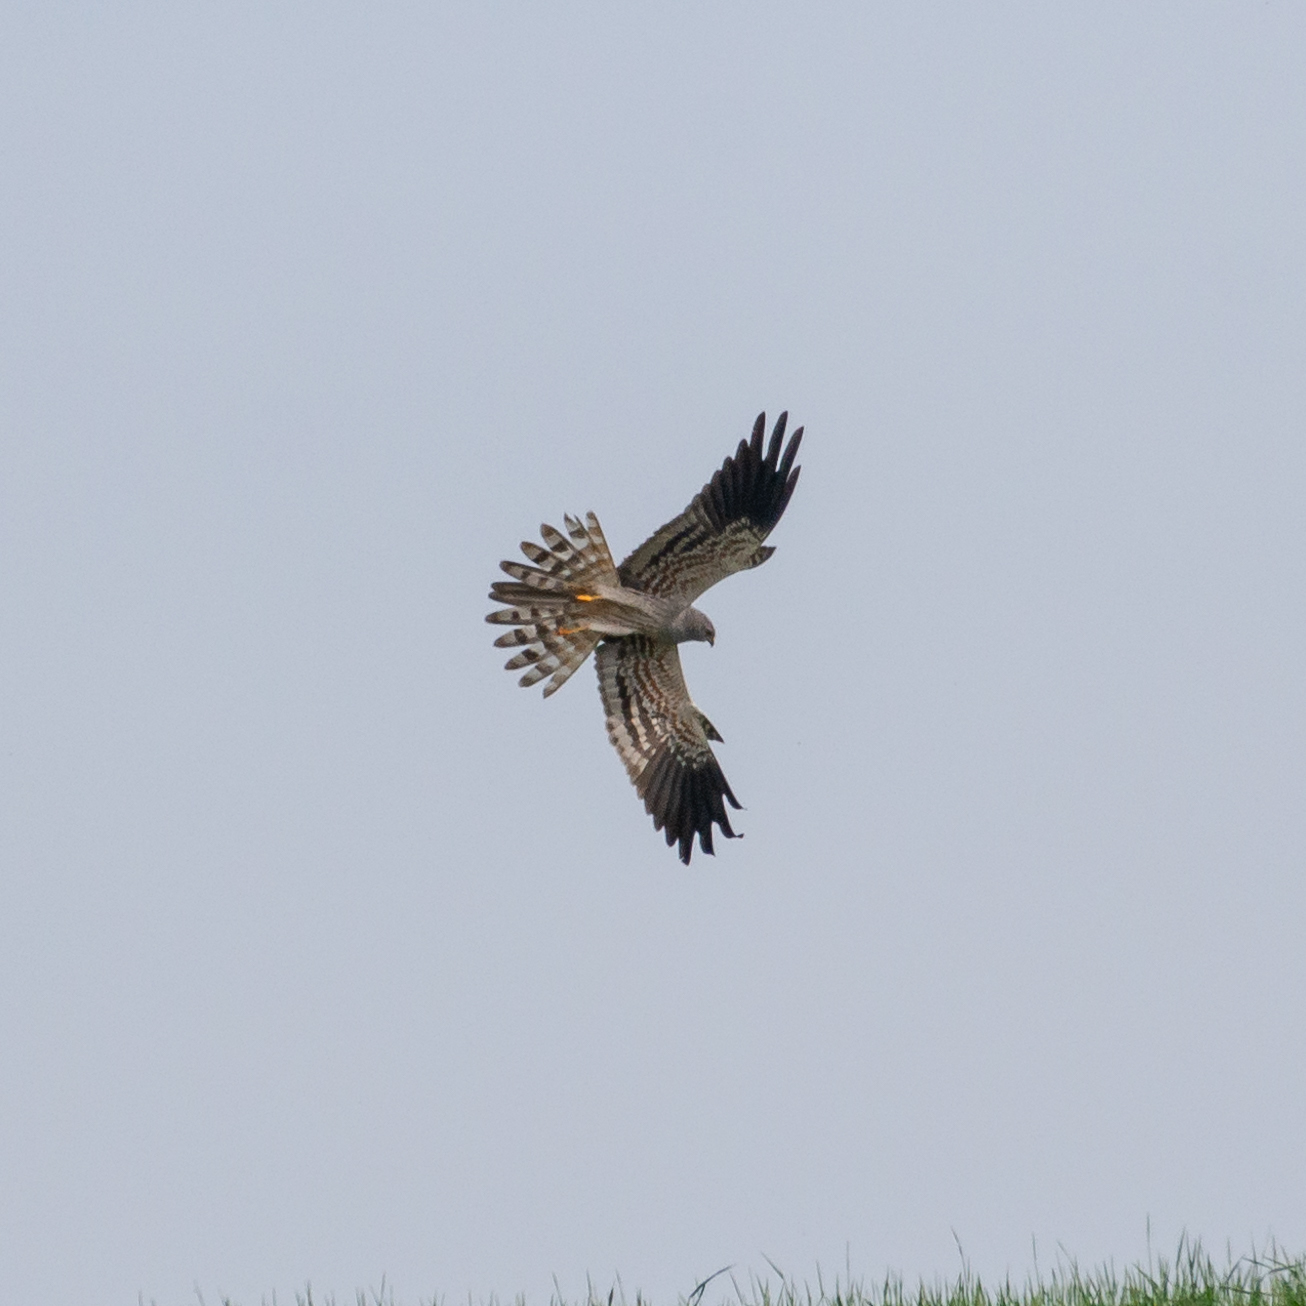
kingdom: Animalia
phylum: Chordata
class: Aves
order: Accipitriformes
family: Accipitridae
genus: Circus
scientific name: Circus pygargus
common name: Montagu's harrier
